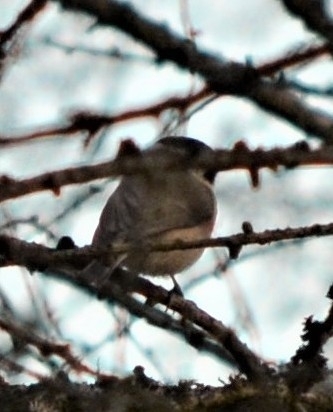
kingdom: Animalia
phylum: Chordata
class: Aves
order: Passeriformes
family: Paridae
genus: Poecile
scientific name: Poecile palustris
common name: Marsh tit
